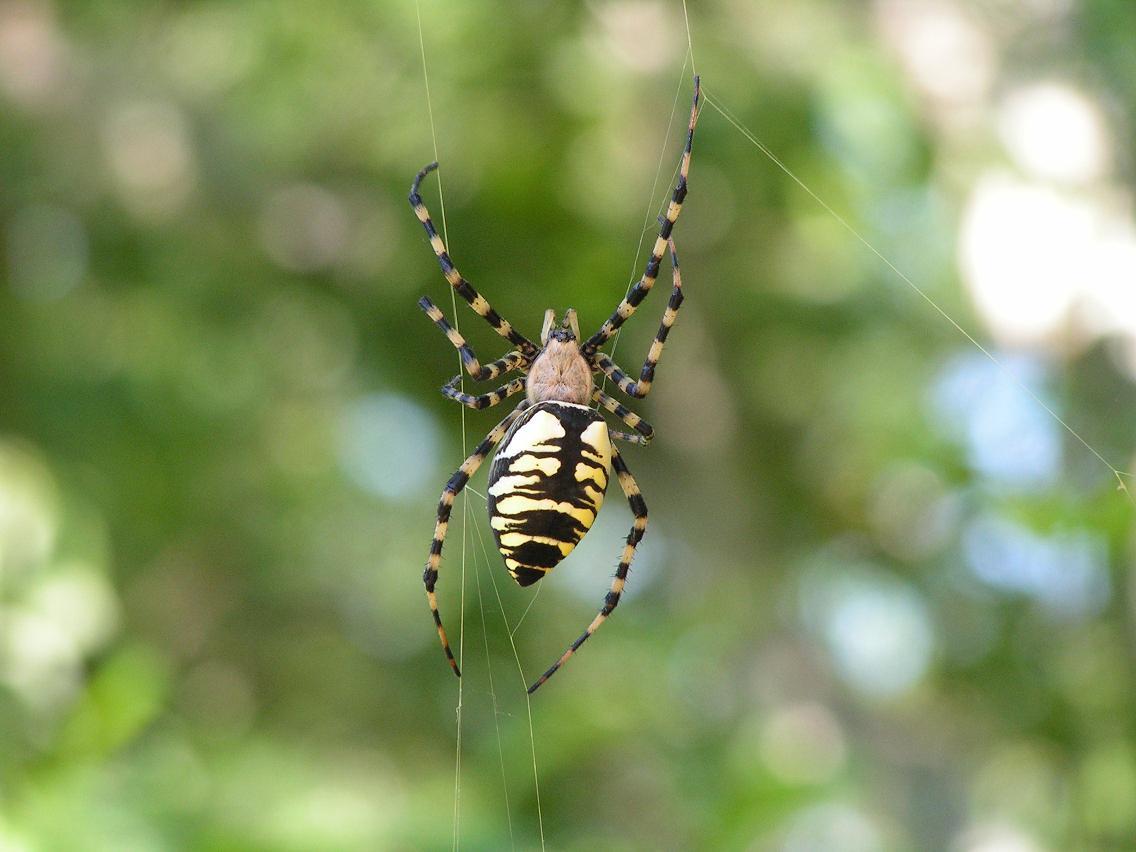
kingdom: Animalia
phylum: Arthropoda
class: Arachnida
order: Araneae
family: Araneidae
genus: Argiope
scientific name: Argiope aurantia
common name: Orb weavers
